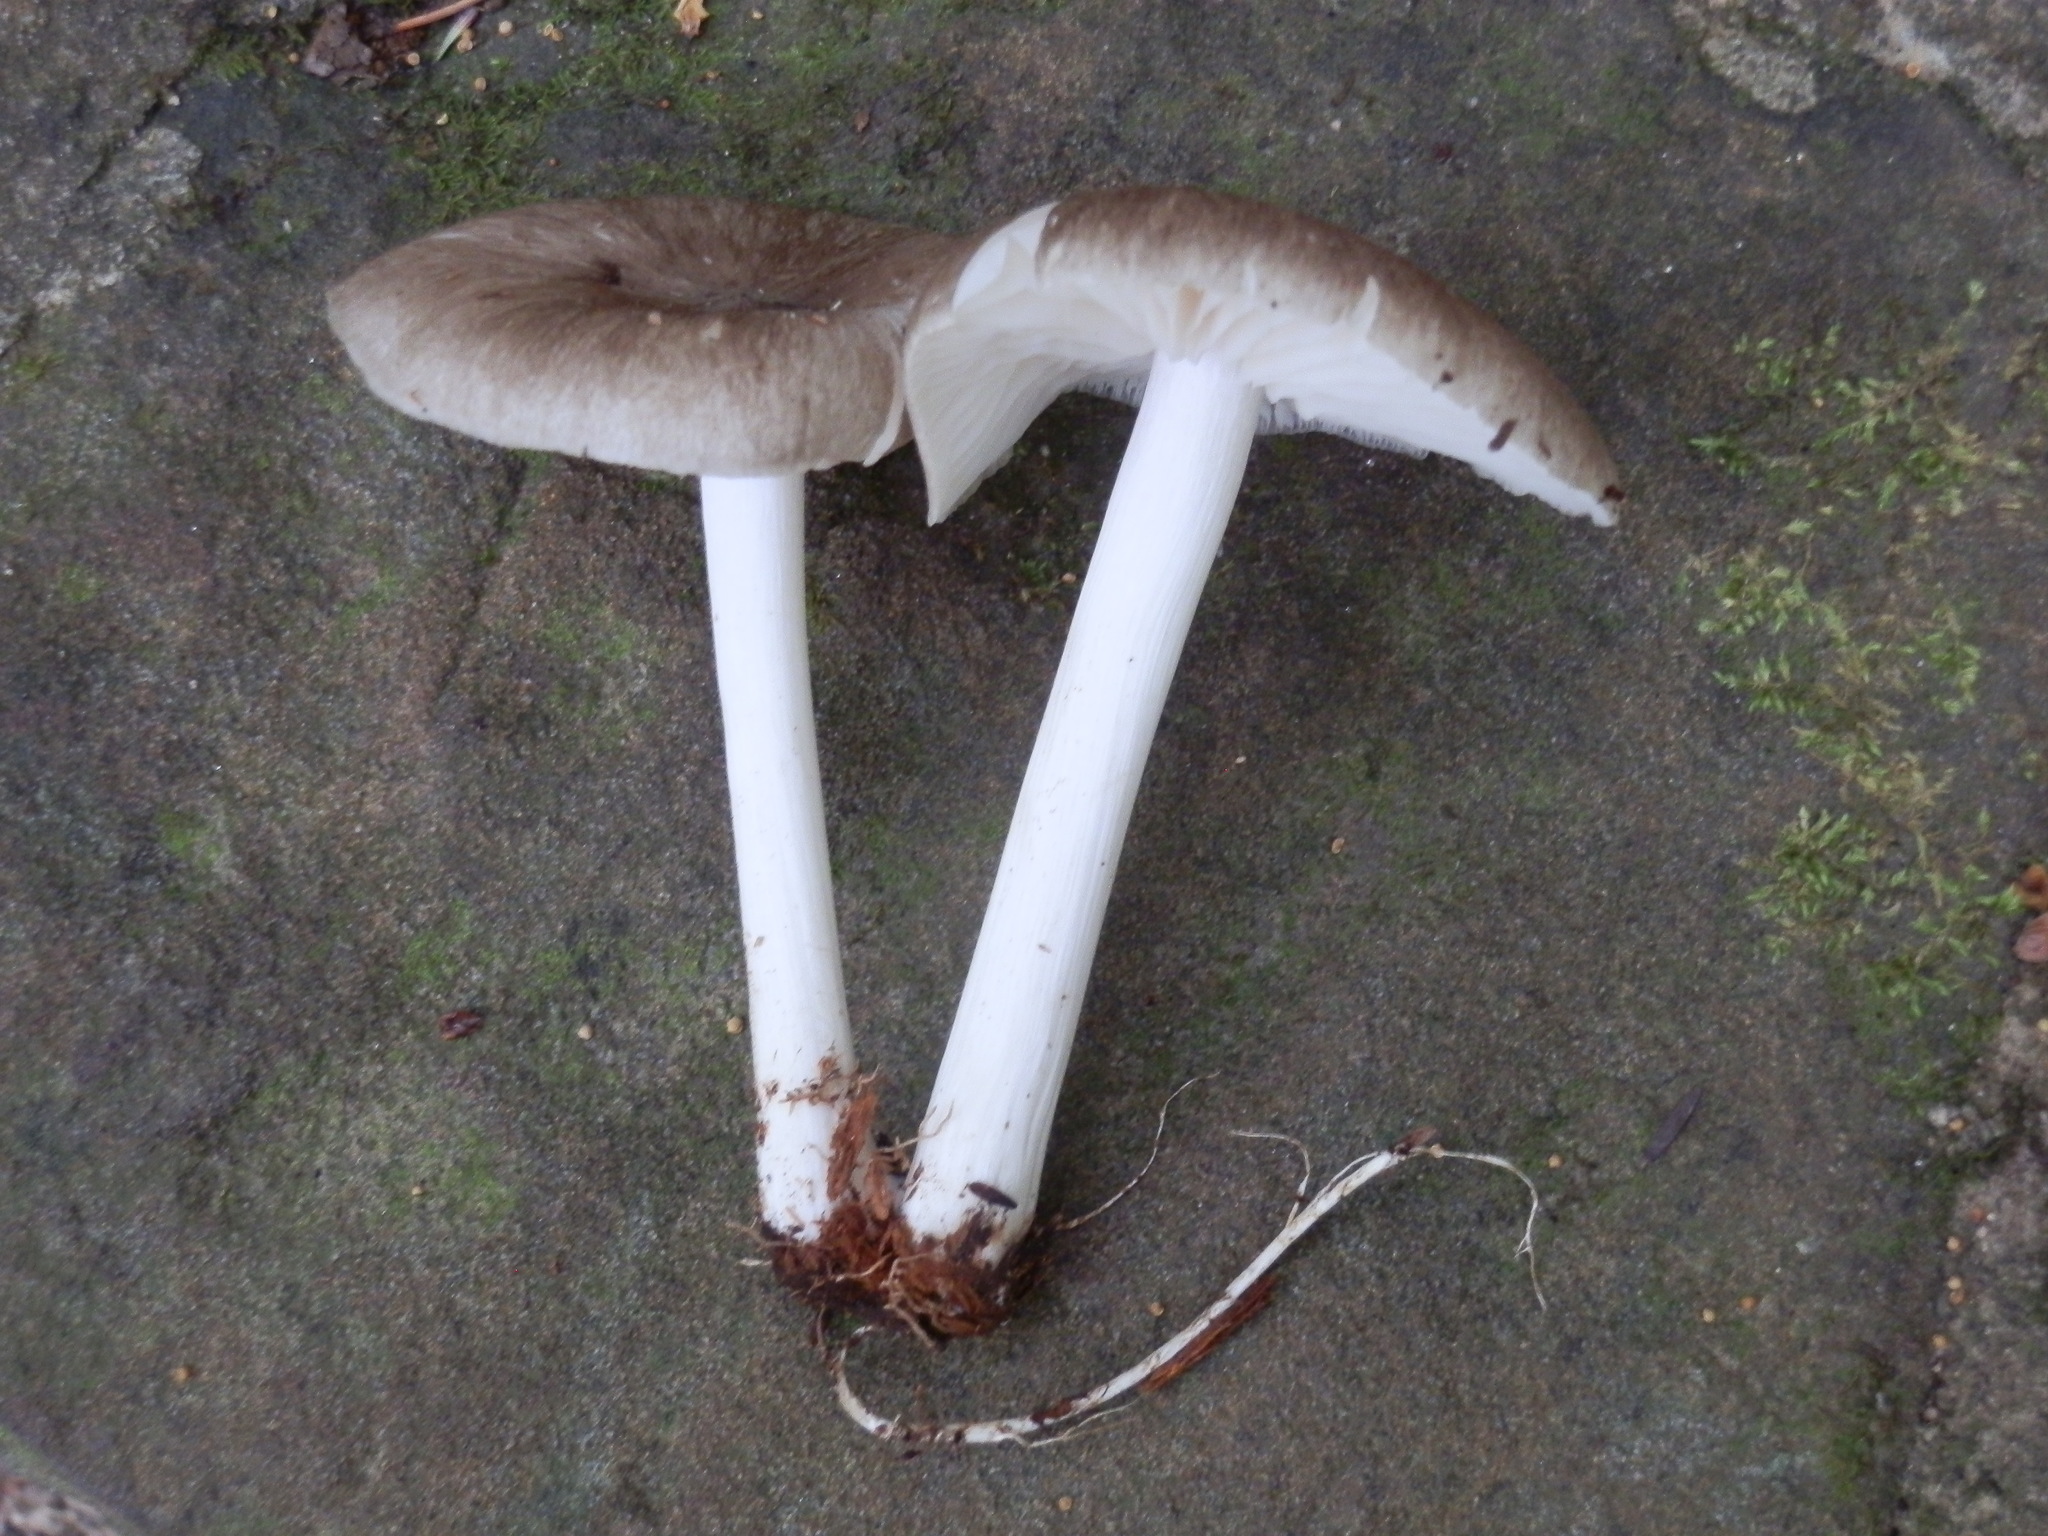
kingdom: Fungi
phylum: Basidiomycota
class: Agaricomycetes
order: Agaricales
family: Tricholomataceae
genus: Megacollybia
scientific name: Megacollybia rodmanii
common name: Eastern american platterful mushroom
